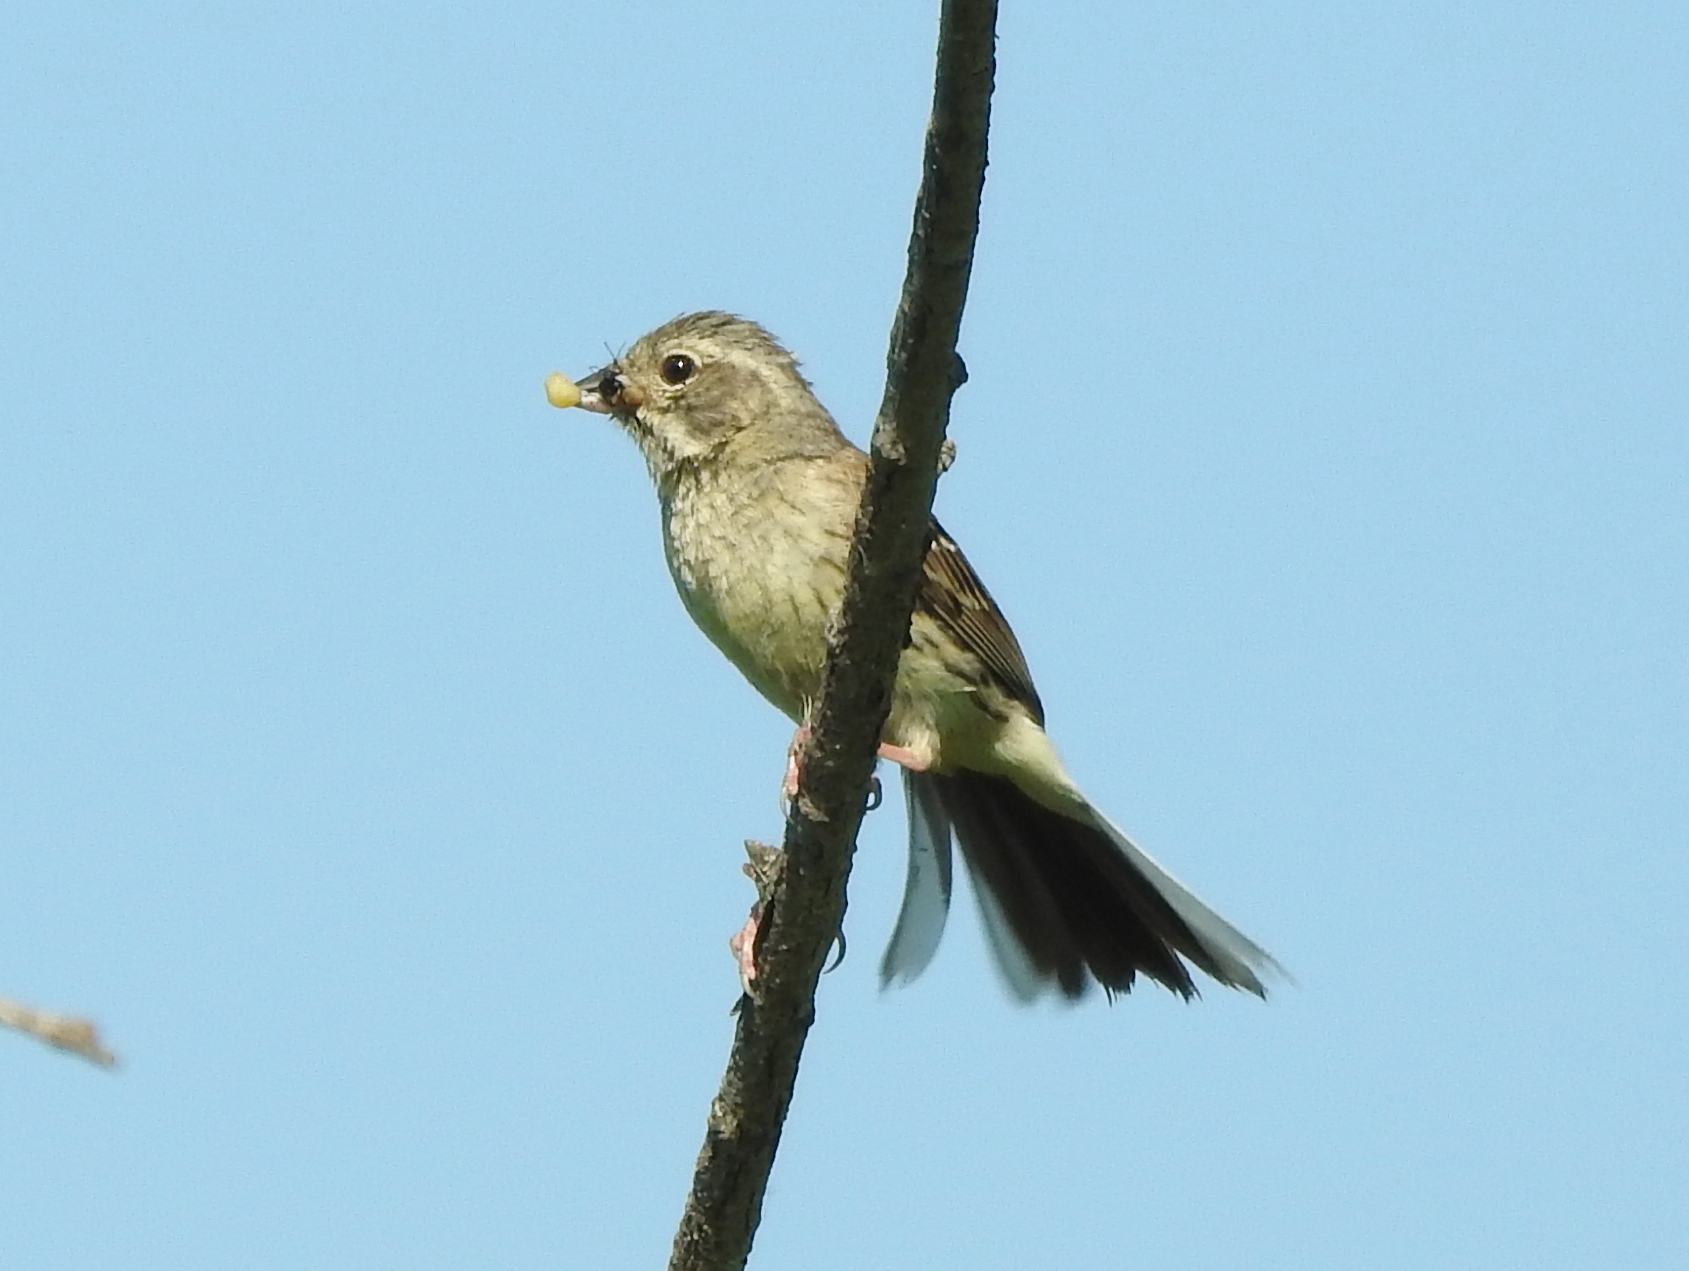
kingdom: Animalia
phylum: Chordata
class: Aves
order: Passeriformes
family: Emberizidae
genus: Emberiza
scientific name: Emberiza spodocephala
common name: Black-faced bunting
